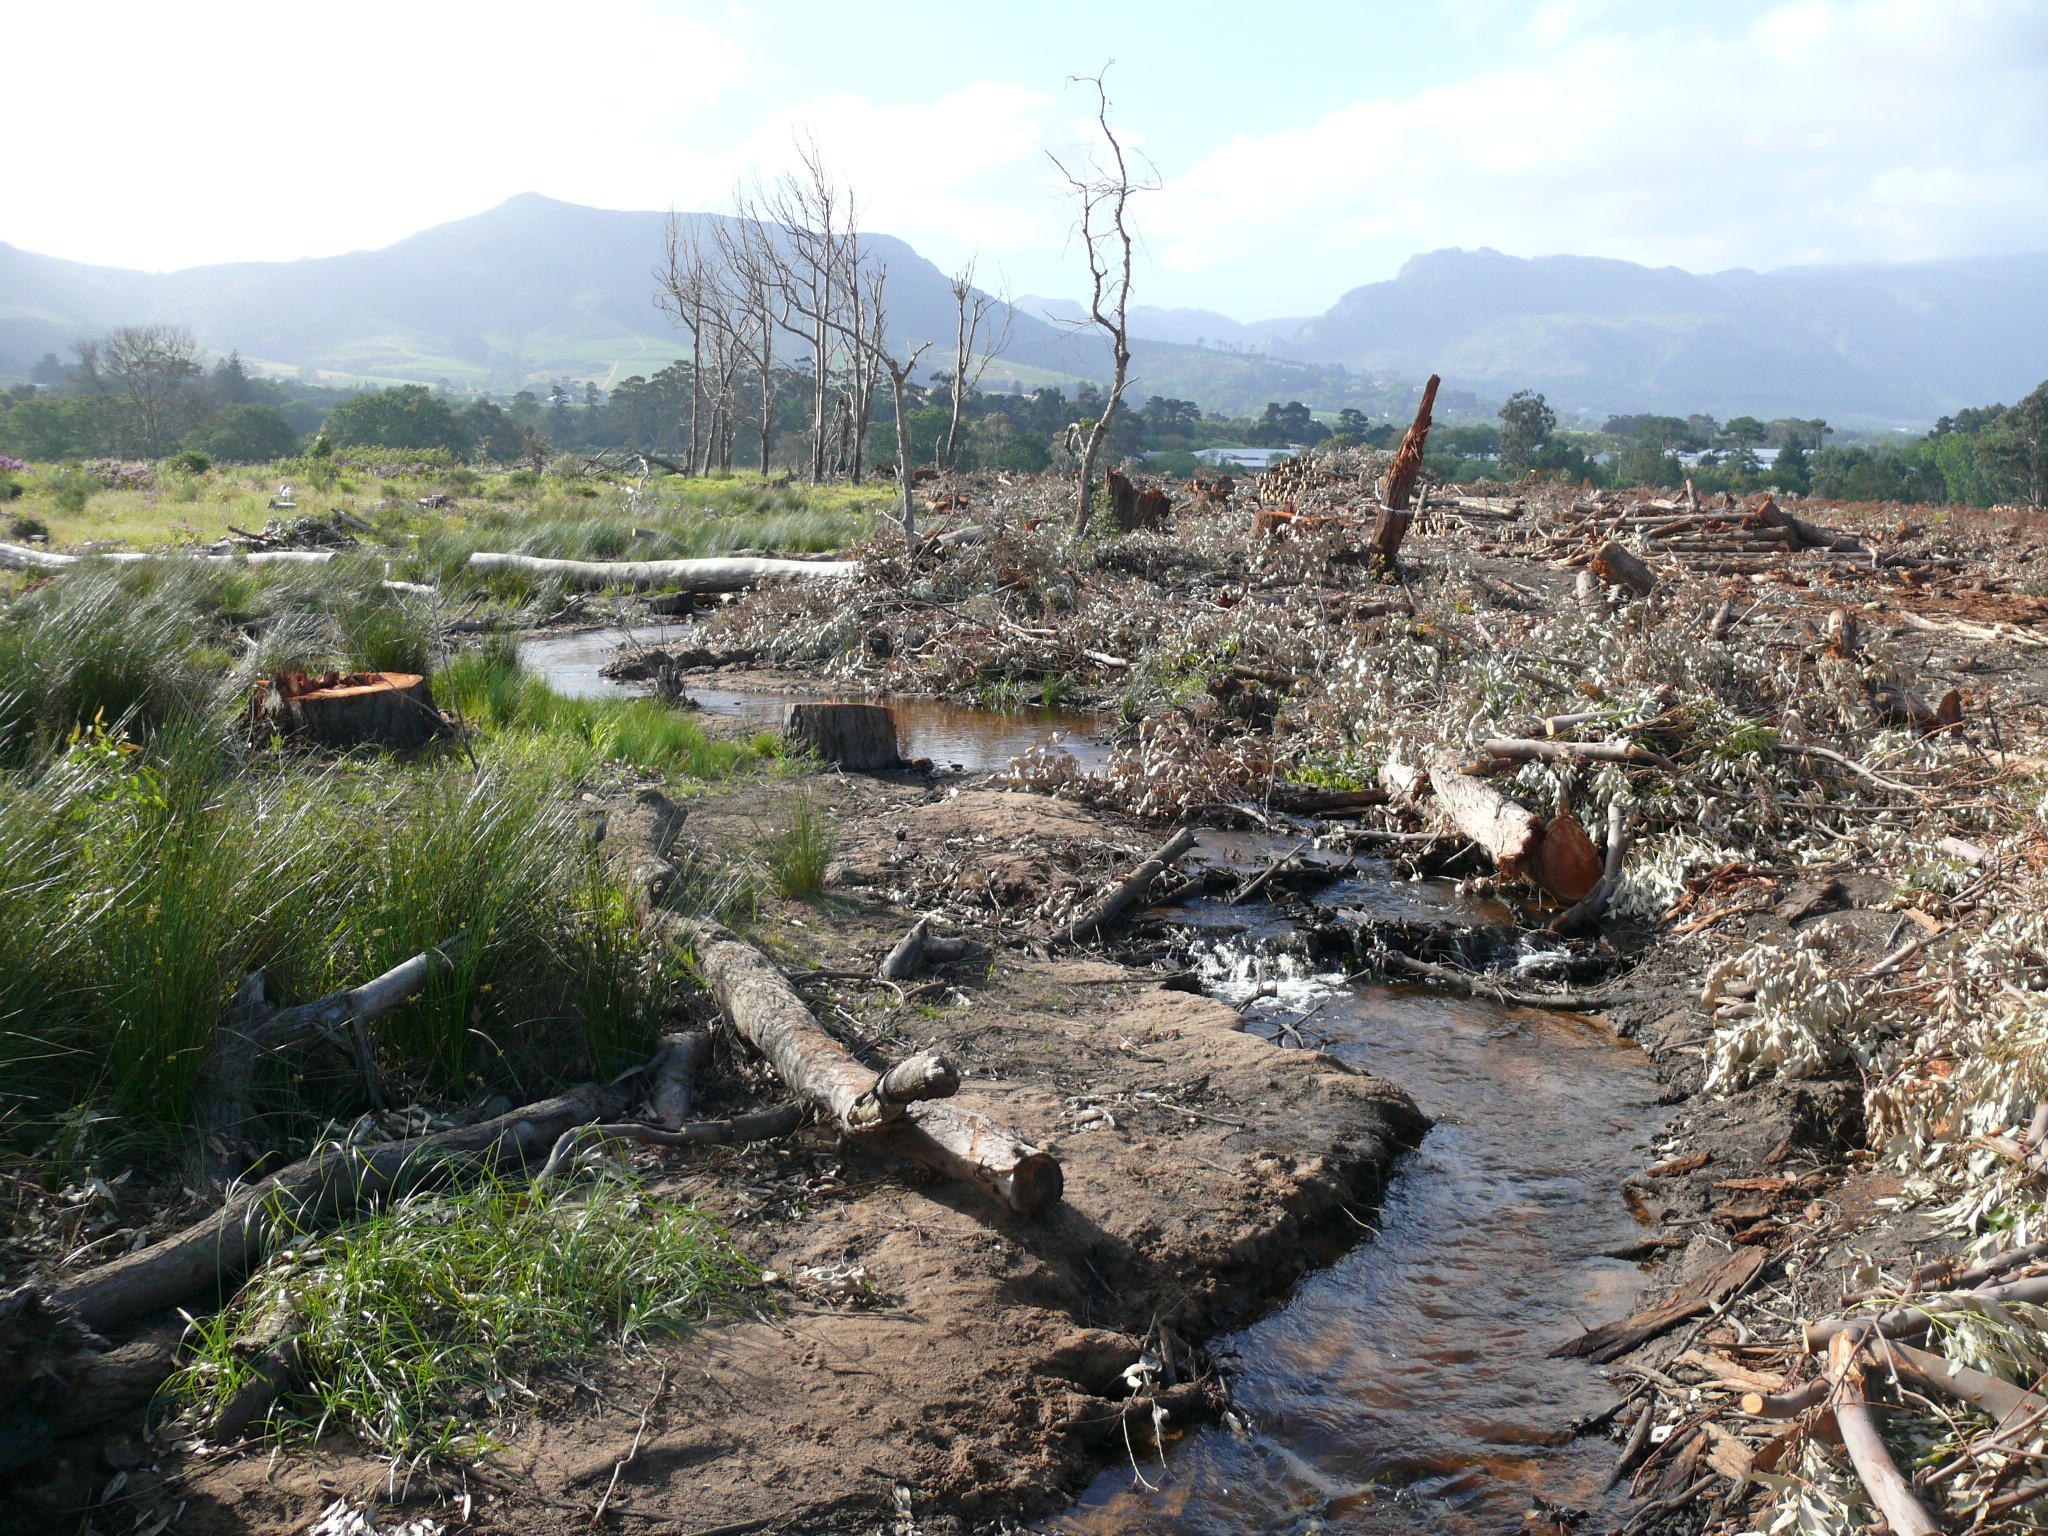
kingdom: Plantae
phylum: Tracheophyta
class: Magnoliopsida
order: Myrtales
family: Myrtaceae
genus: Eucalyptus
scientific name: Eucalyptus botryoides
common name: Bangalay
